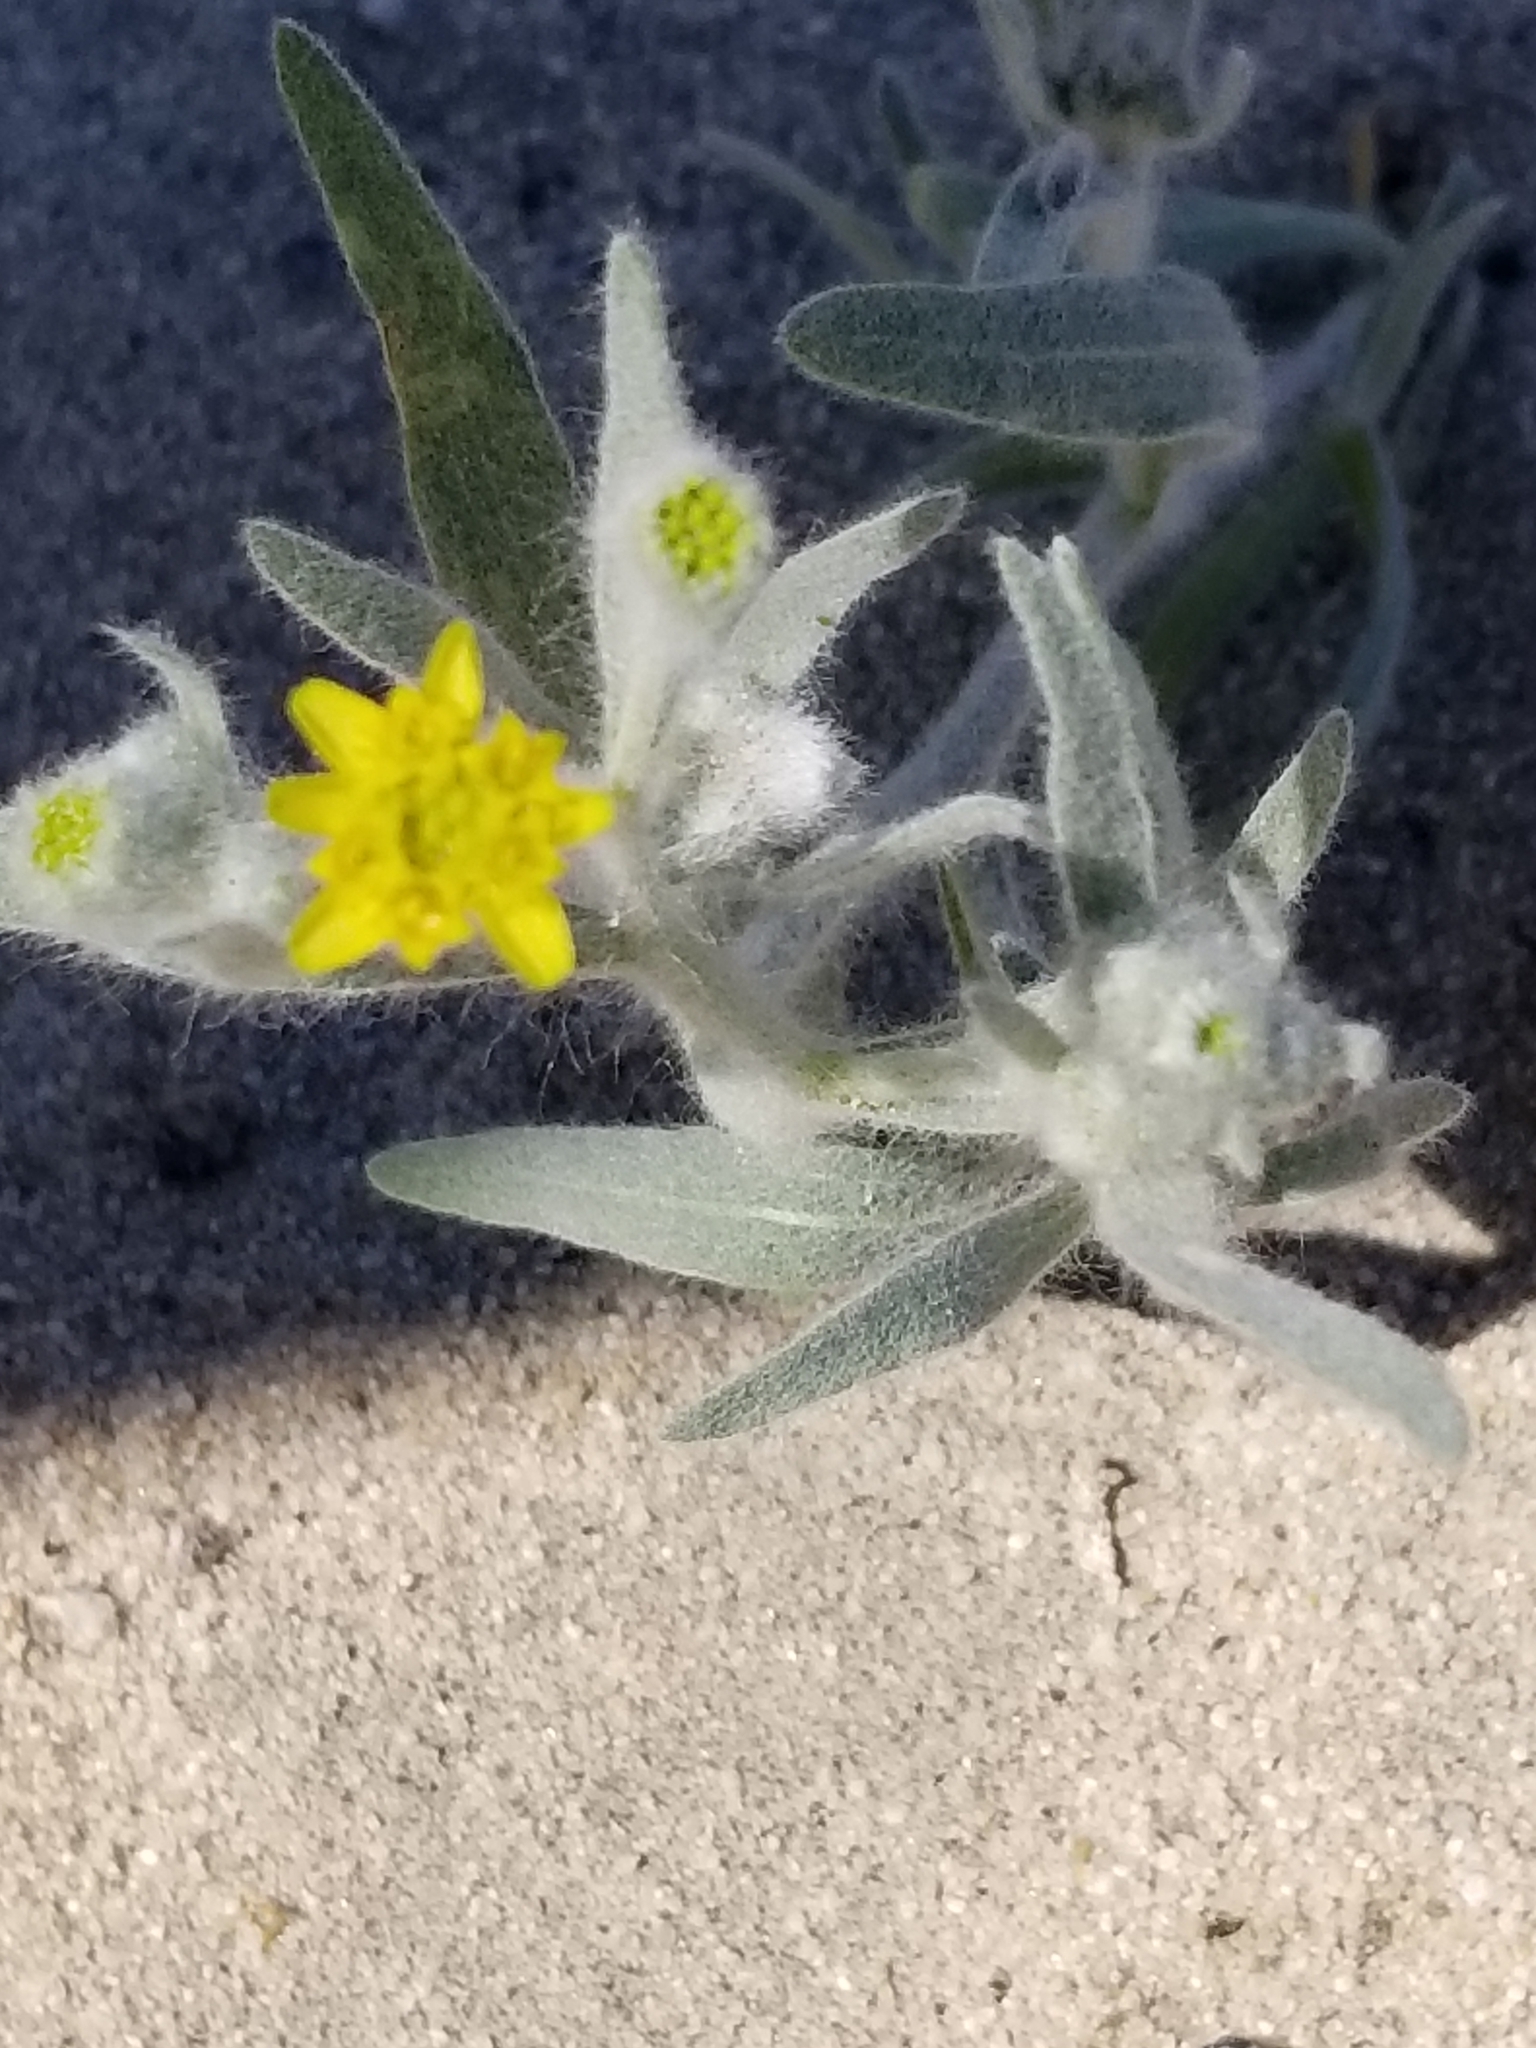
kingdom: Plantae
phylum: Tracheophyta
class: Magnoliopsida
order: Asterales
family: Asteraceae
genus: Baileya
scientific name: Baileya pauciradiata
